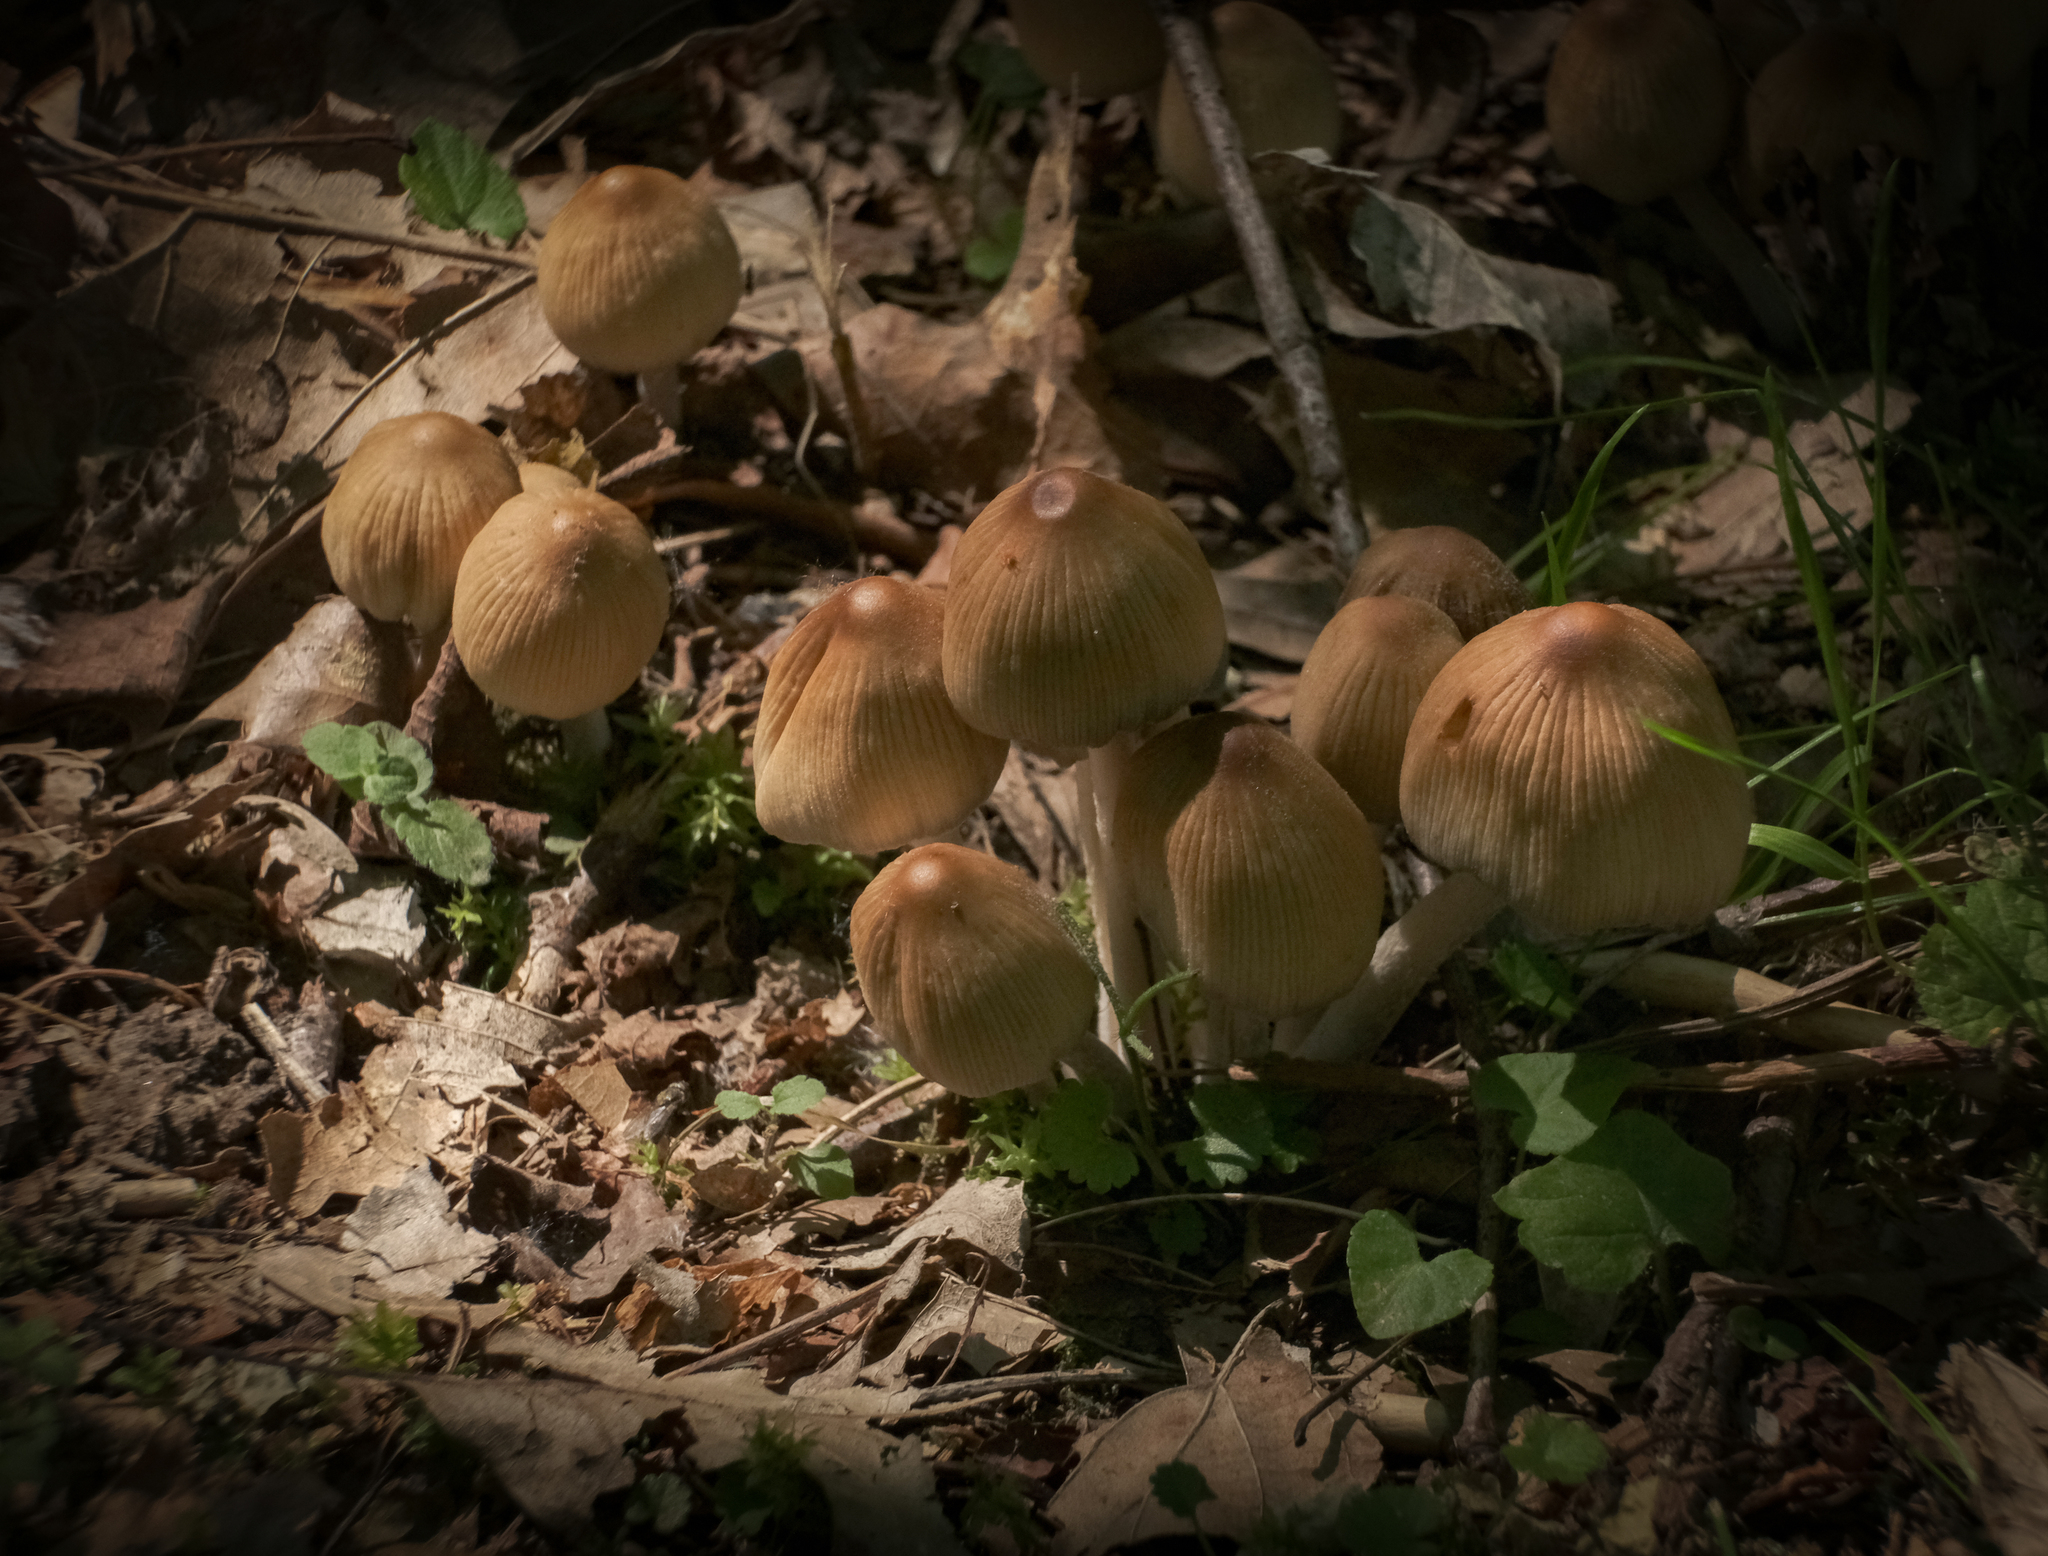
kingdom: Fungi
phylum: Basidiomycota
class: Agaricomycetes
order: Agaricales
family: Psathyrellaceae
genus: Coprinellus
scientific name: Coprinellus micaceus
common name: Glistening ink-cap
